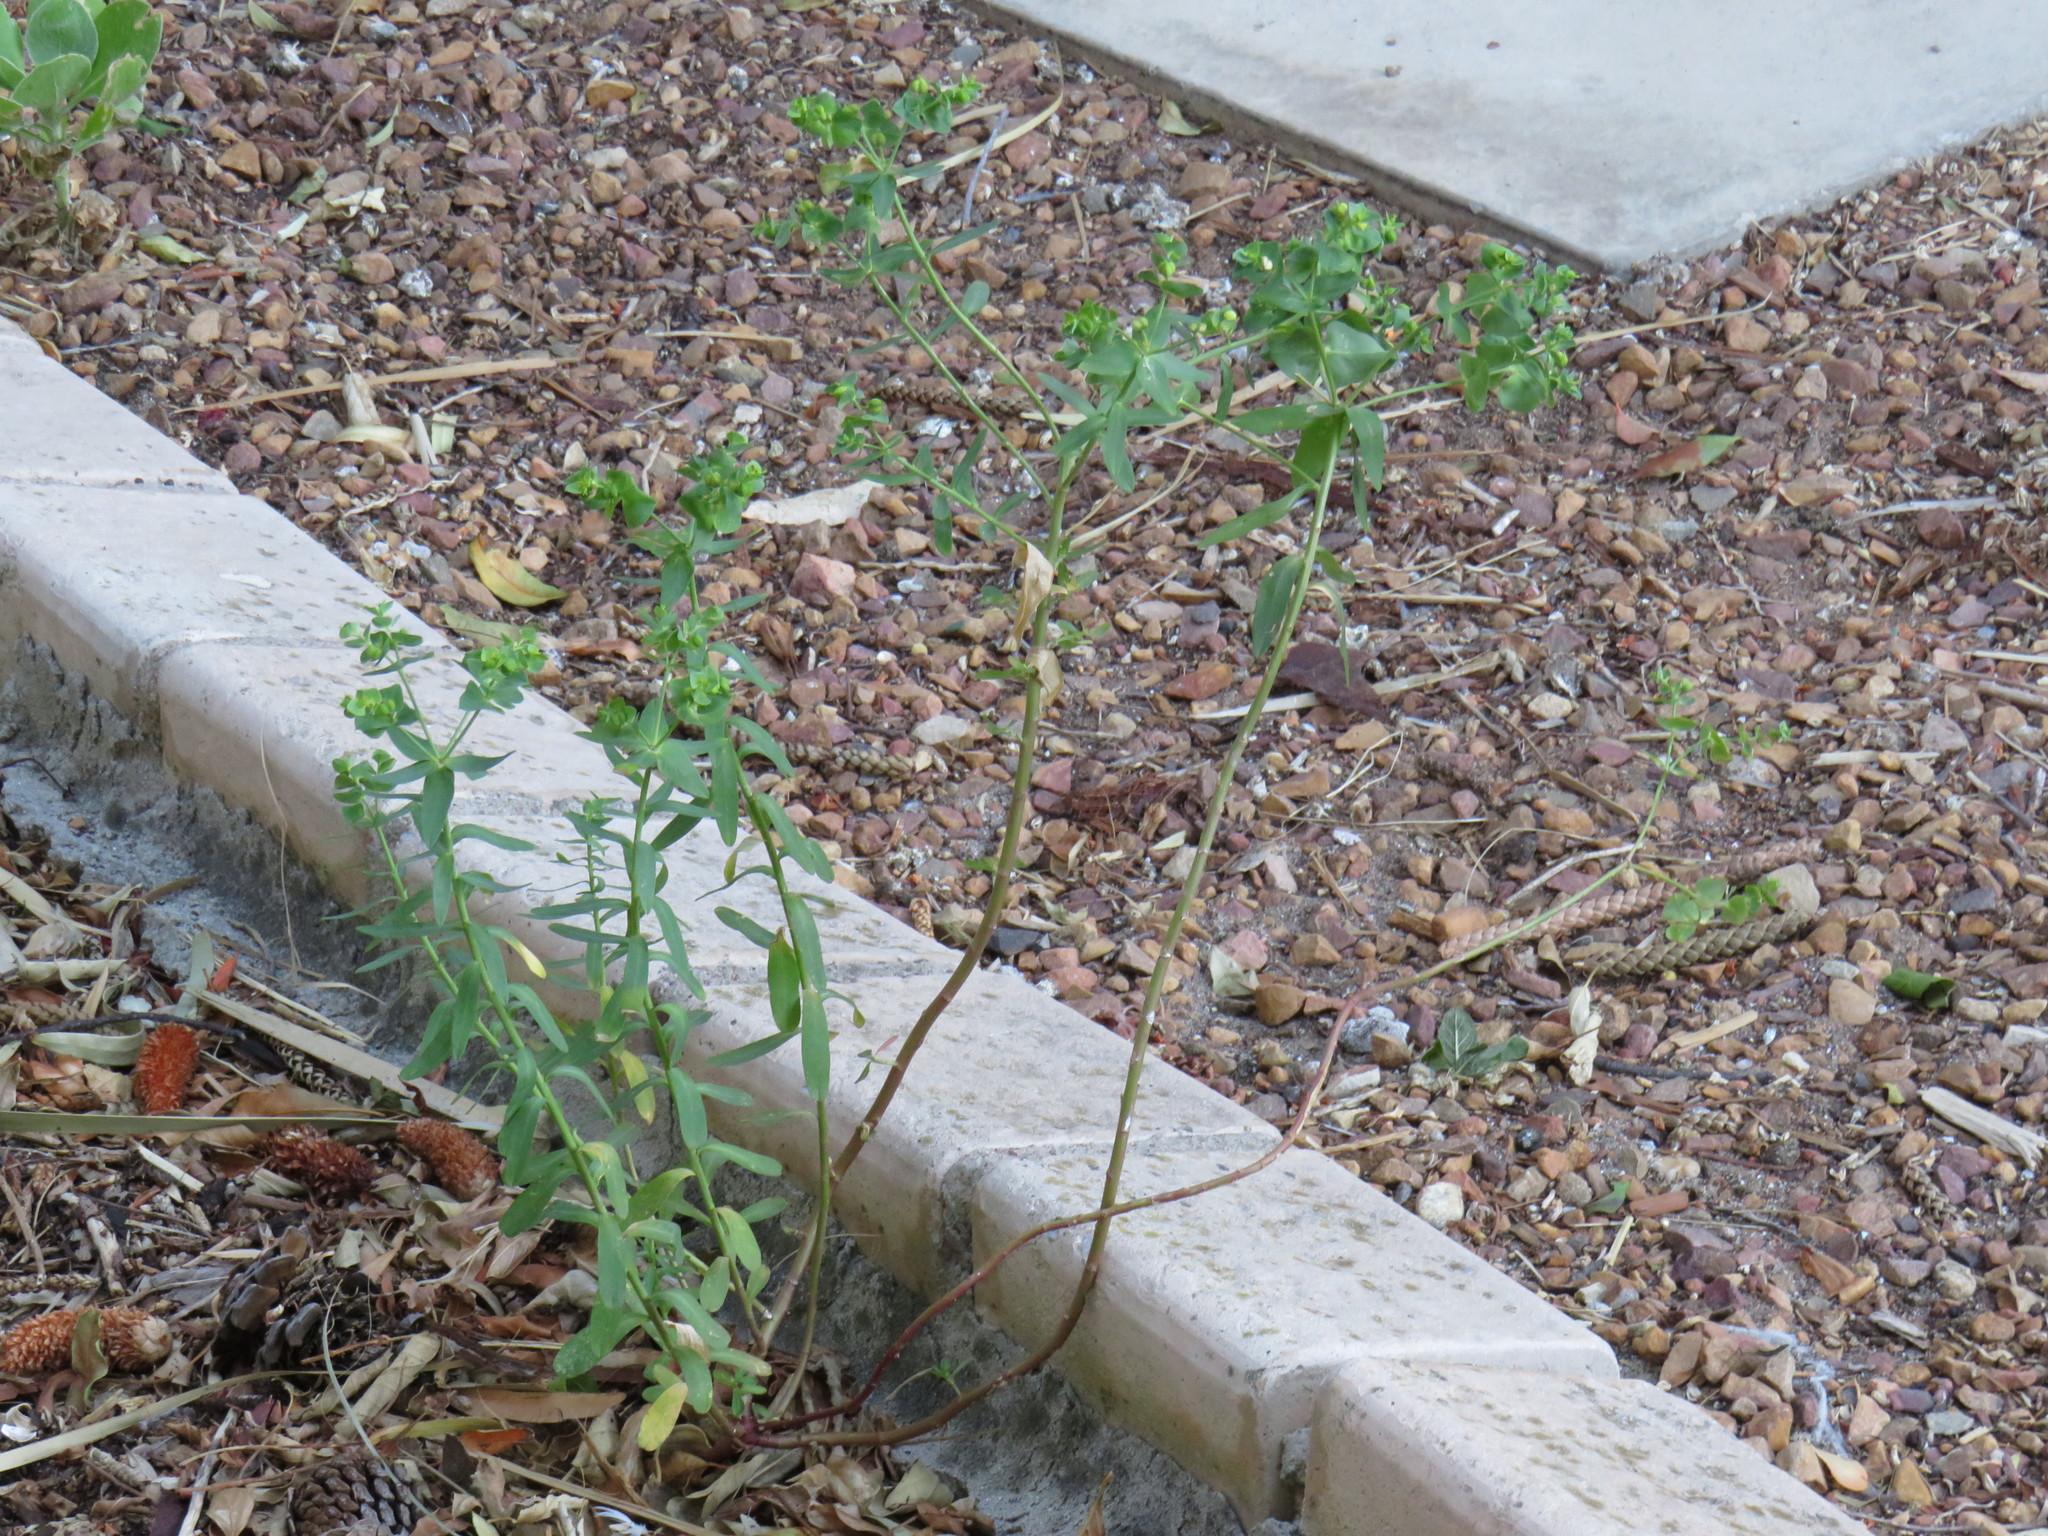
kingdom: Plantae
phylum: Tracheophyta
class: Magnoliopsida
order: Malpighiales
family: Euphorbiaceae
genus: Euphorbia
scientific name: Euphorbia terracina
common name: Geraldton carnation weed
